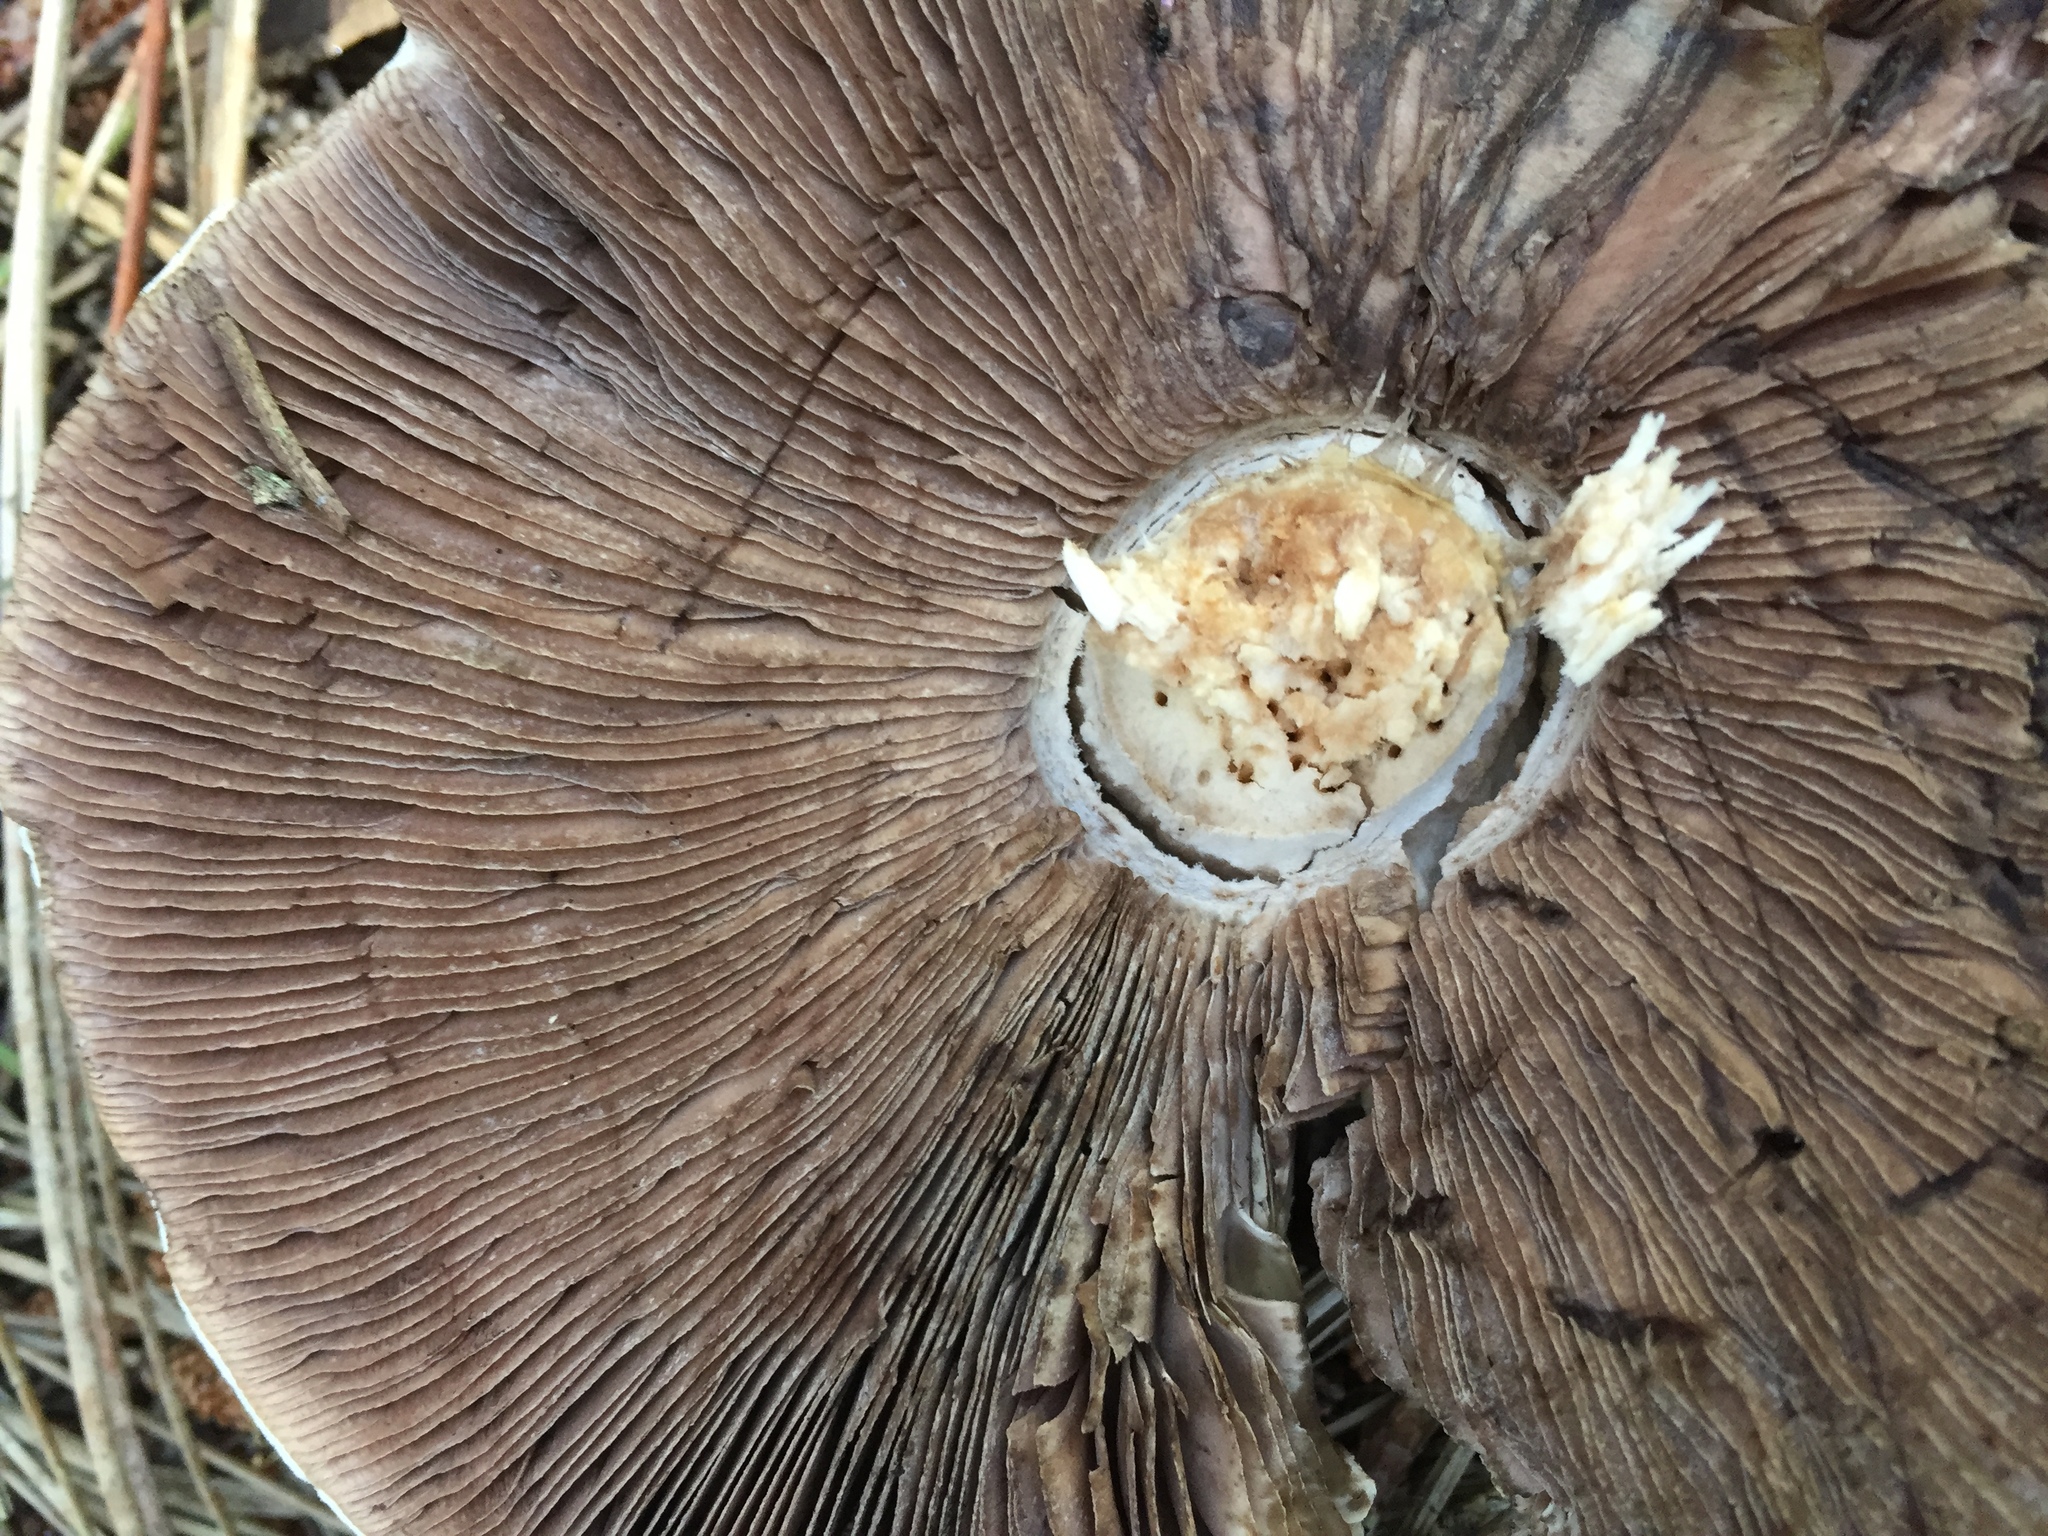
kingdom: Fungi
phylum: Basidiomycota
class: Agaricomycetes
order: Agaricales
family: Agaricaceae
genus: Agaricus
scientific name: Agaricus xanthodermus
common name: Yellow stainer
